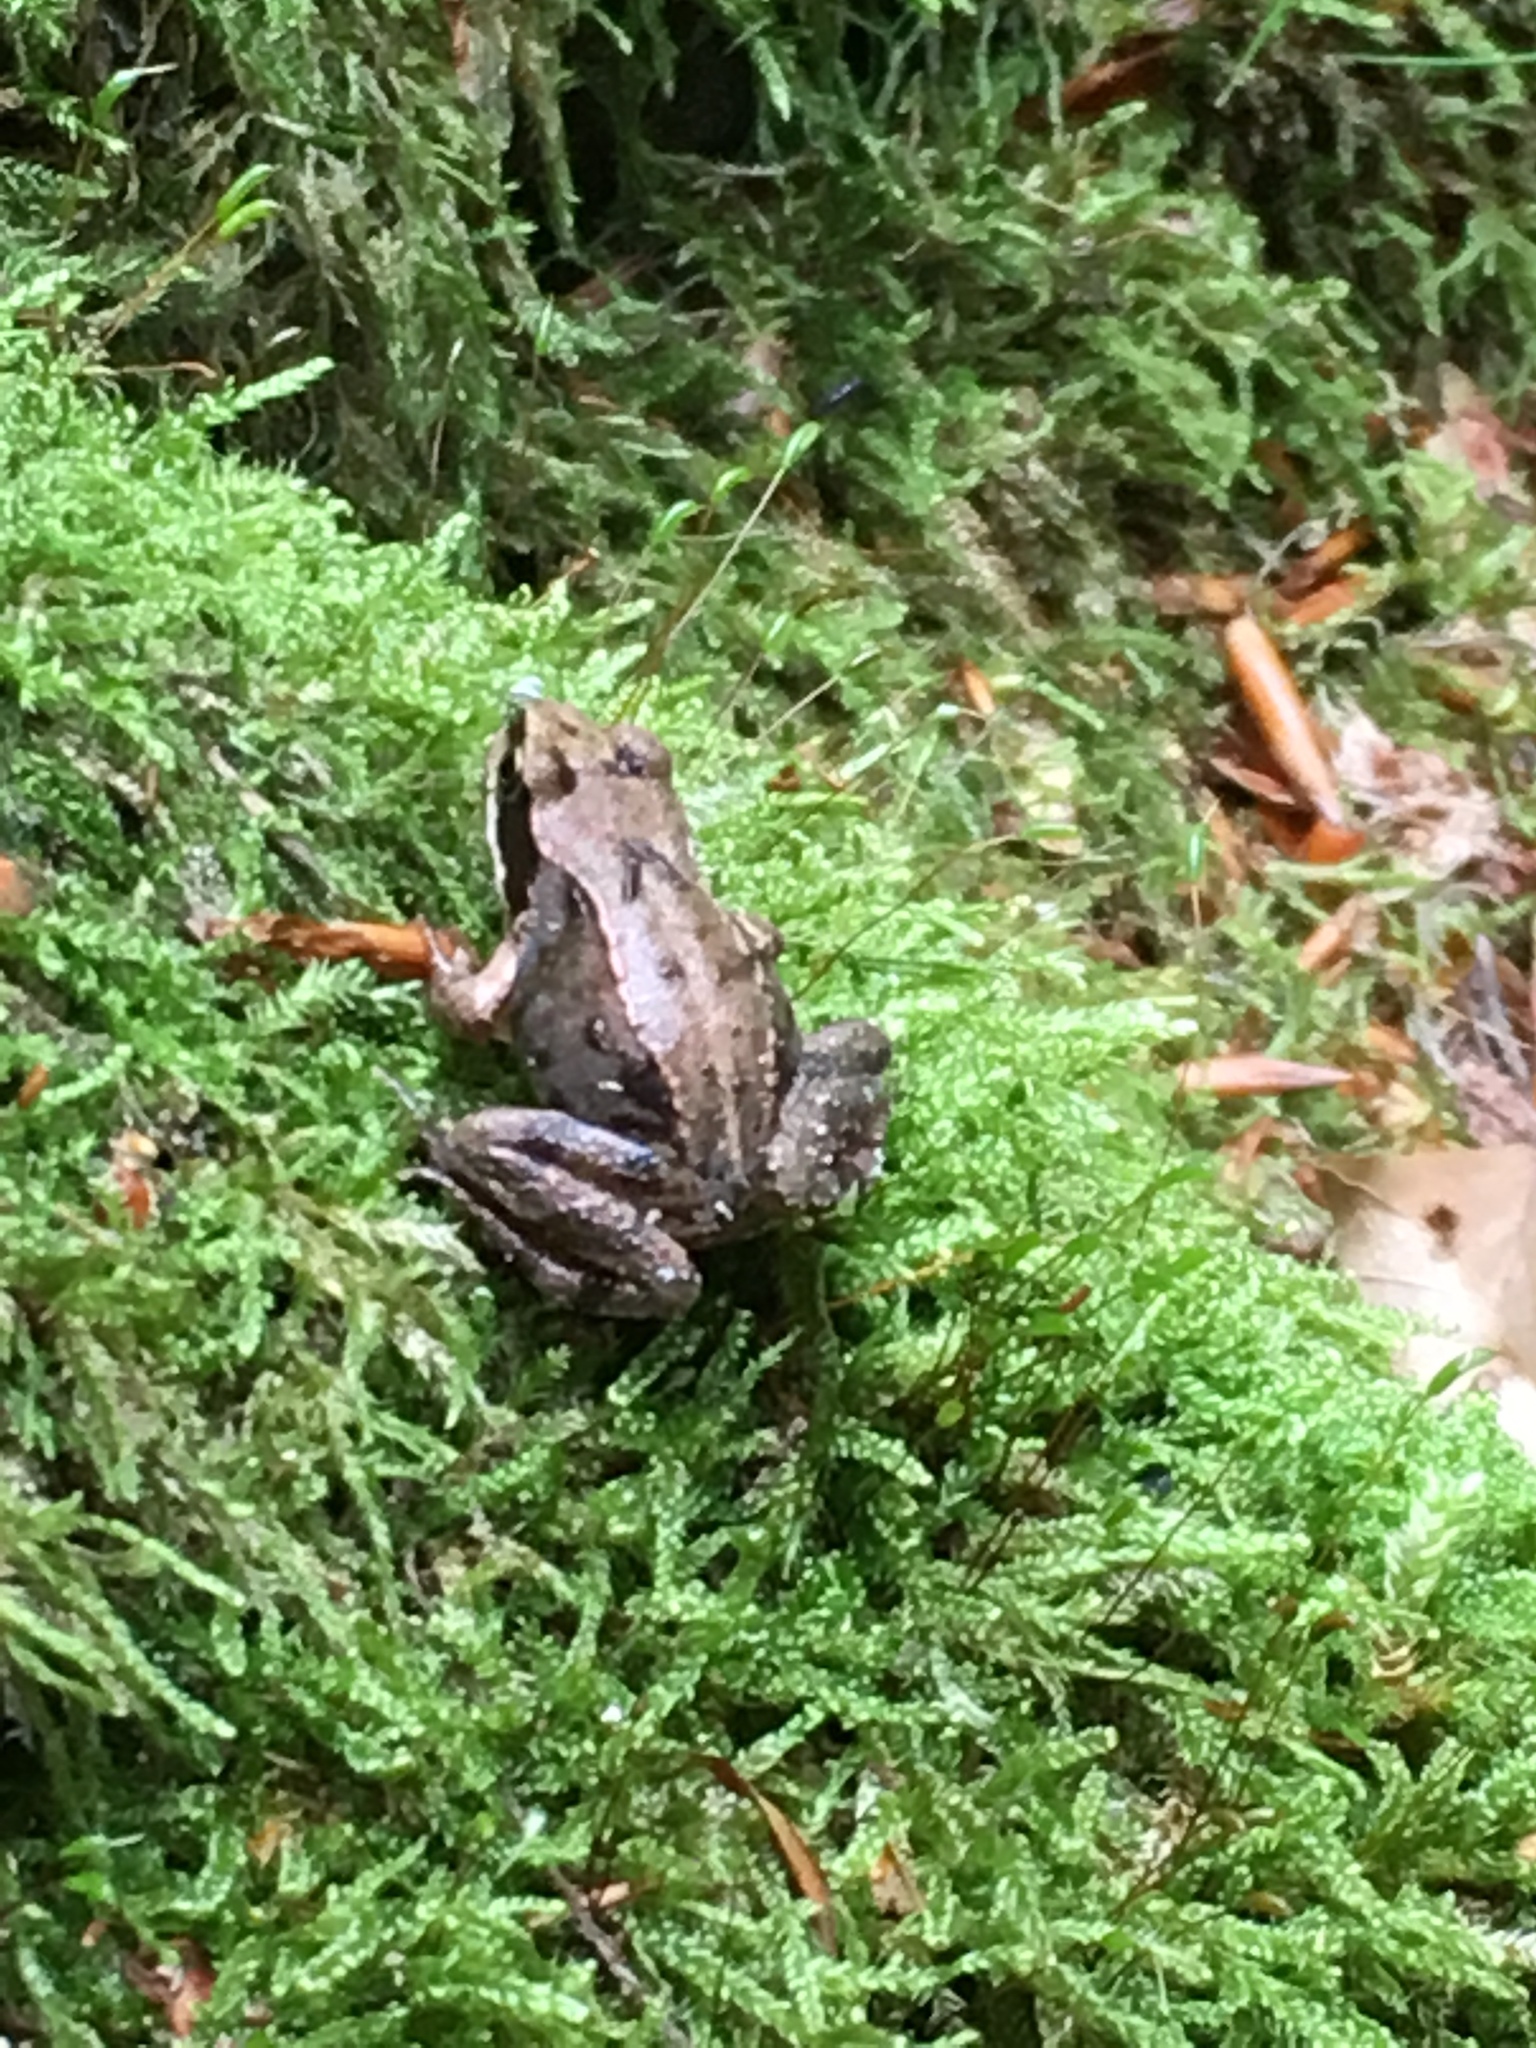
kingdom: Animalia
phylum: Chordata
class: Amphibia
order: Anura
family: Ranidae
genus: Rana
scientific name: Rana temporaria
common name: Common frog
